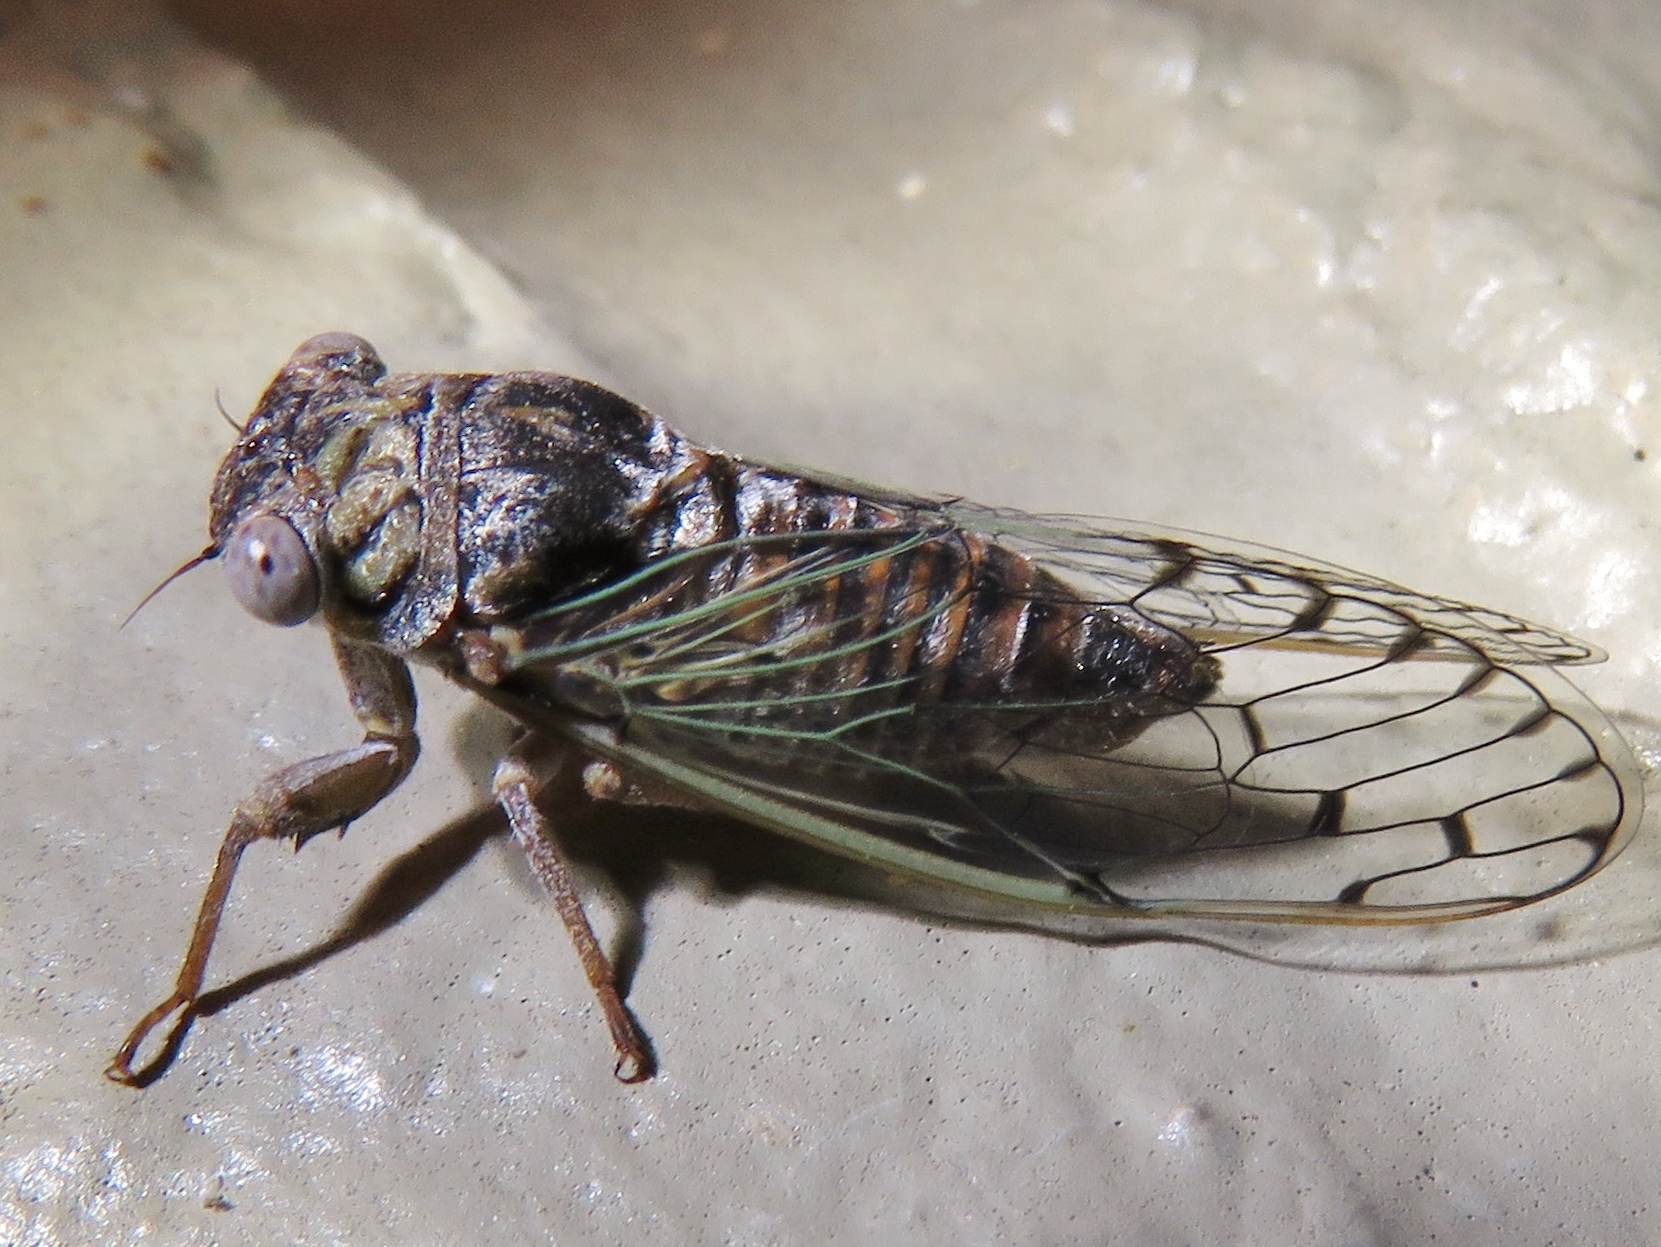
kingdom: Animalia
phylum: Arthropoda
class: Insecta
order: Hemiptera
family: Cicadidae
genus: Pacarina
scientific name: Pacarina puella
